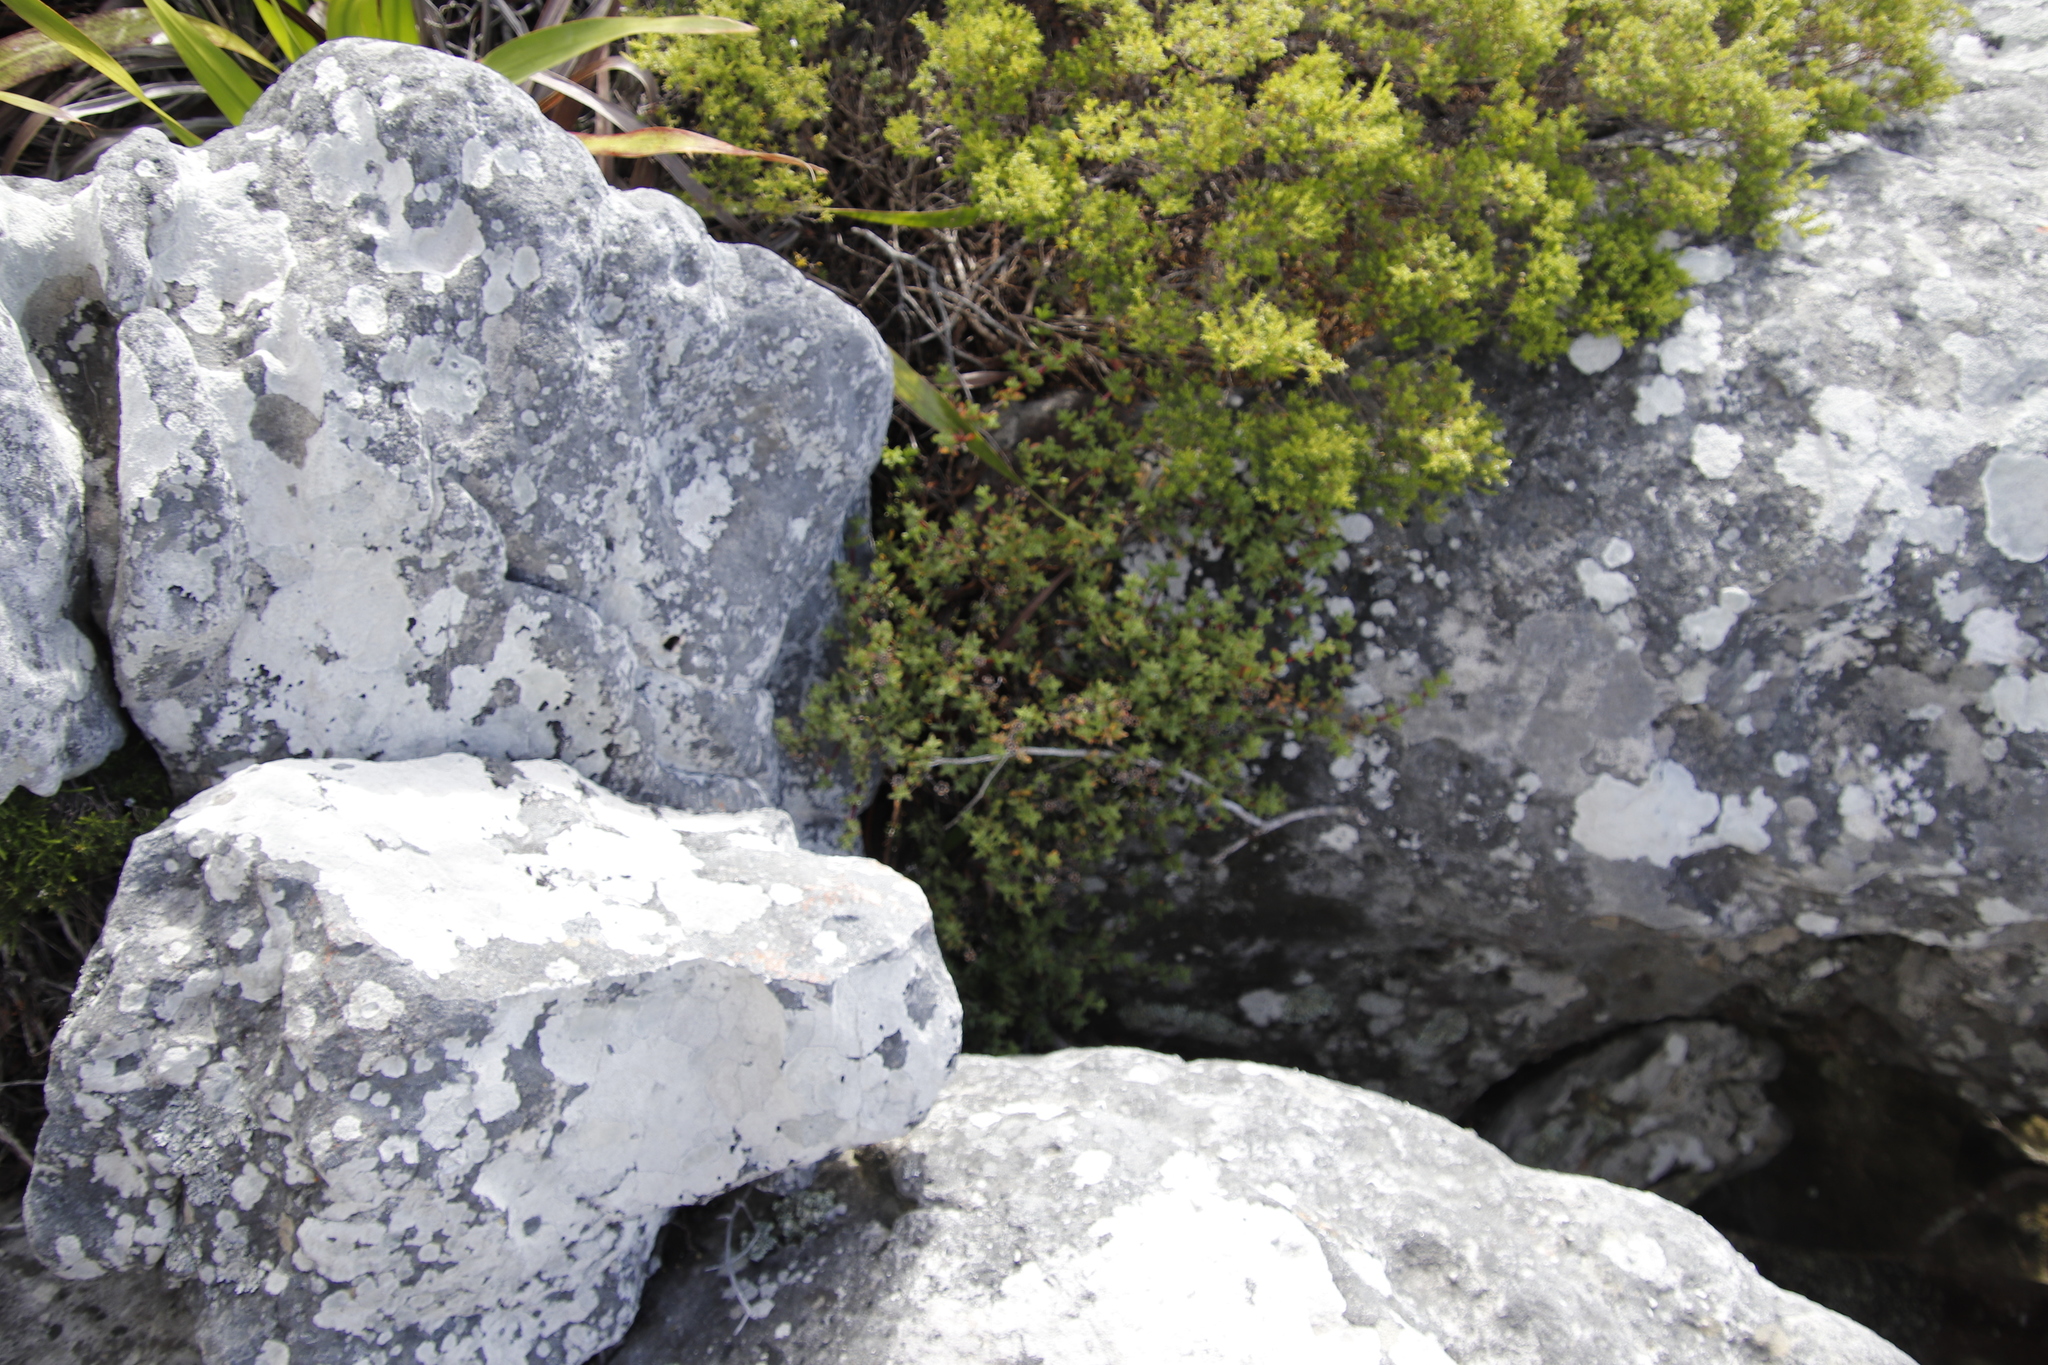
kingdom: Plantae
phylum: Tracheophyta
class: Magnoliopsida
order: Caryophyllales
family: Aizoaceae
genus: Oscularia
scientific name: Oscularia falciformis
